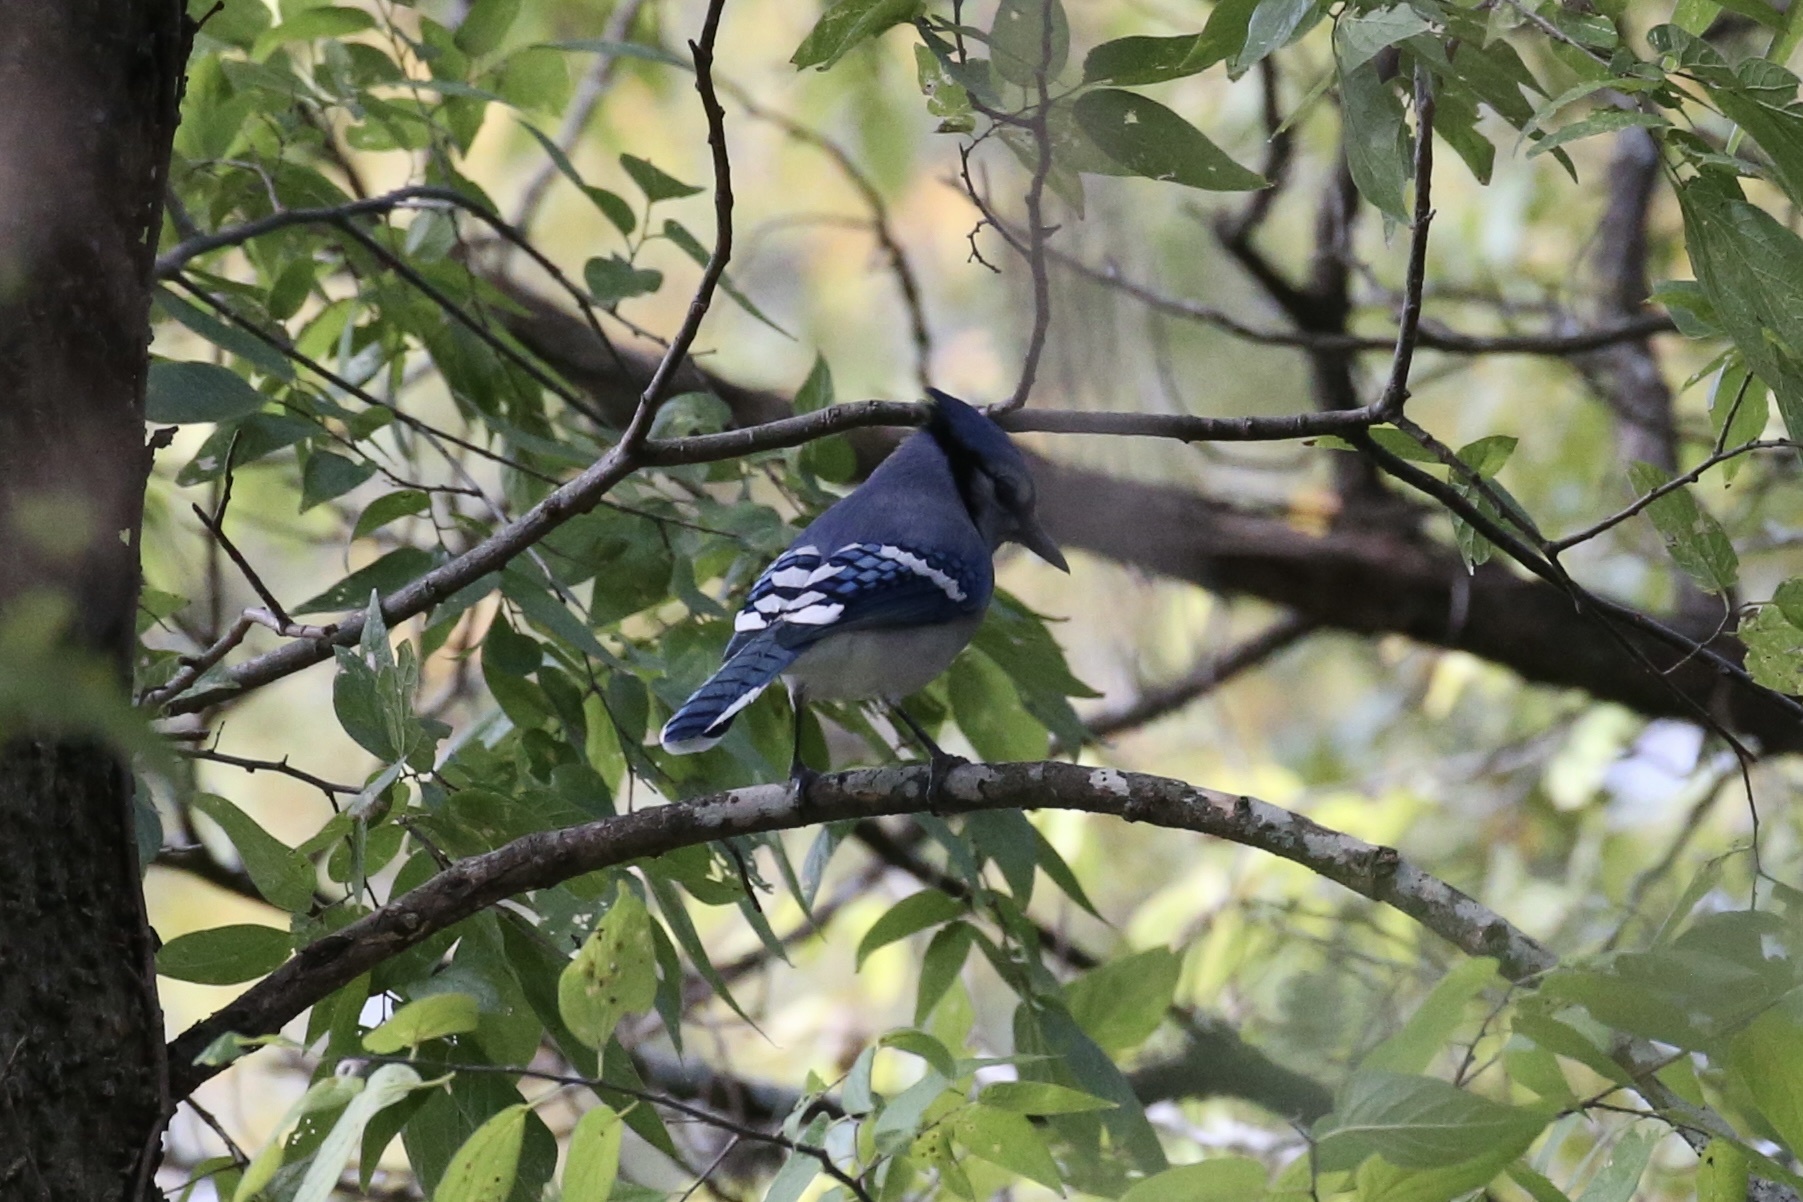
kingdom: Animalia
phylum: Chordata
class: Aves
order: Passeriformes
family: Corvidae
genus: Cyanocitta
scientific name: Cyanocitta cristata
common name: Blue jay
